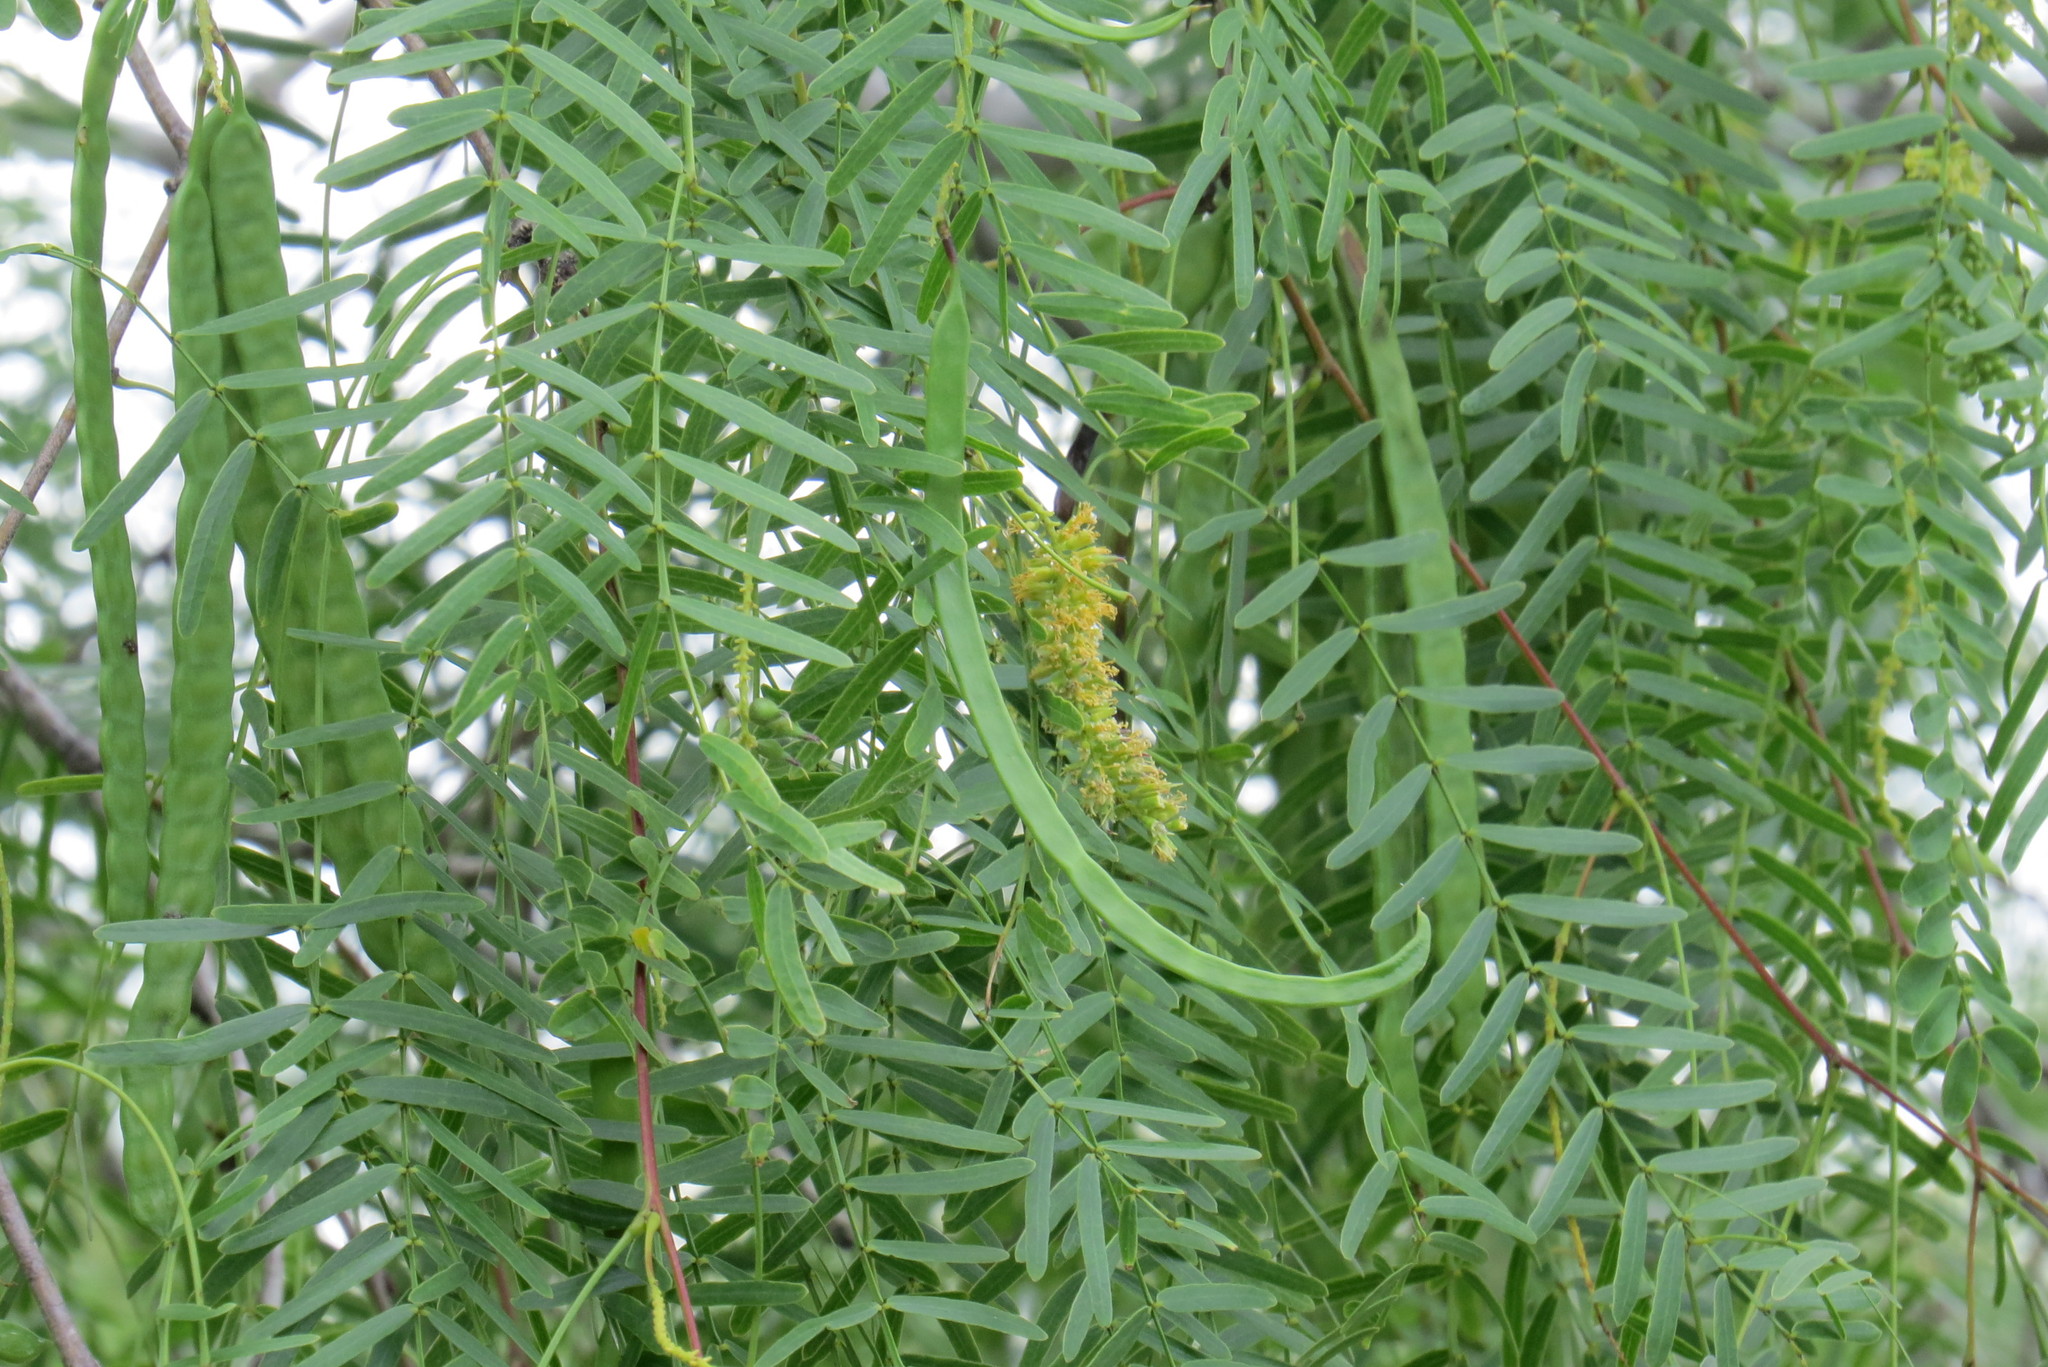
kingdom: Plantae
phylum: Tracheophyta
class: Magnoliopsida
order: Fabales
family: Fabaceae
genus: Prosopis
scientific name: Prosopis glandulosa
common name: Honey mesquite
